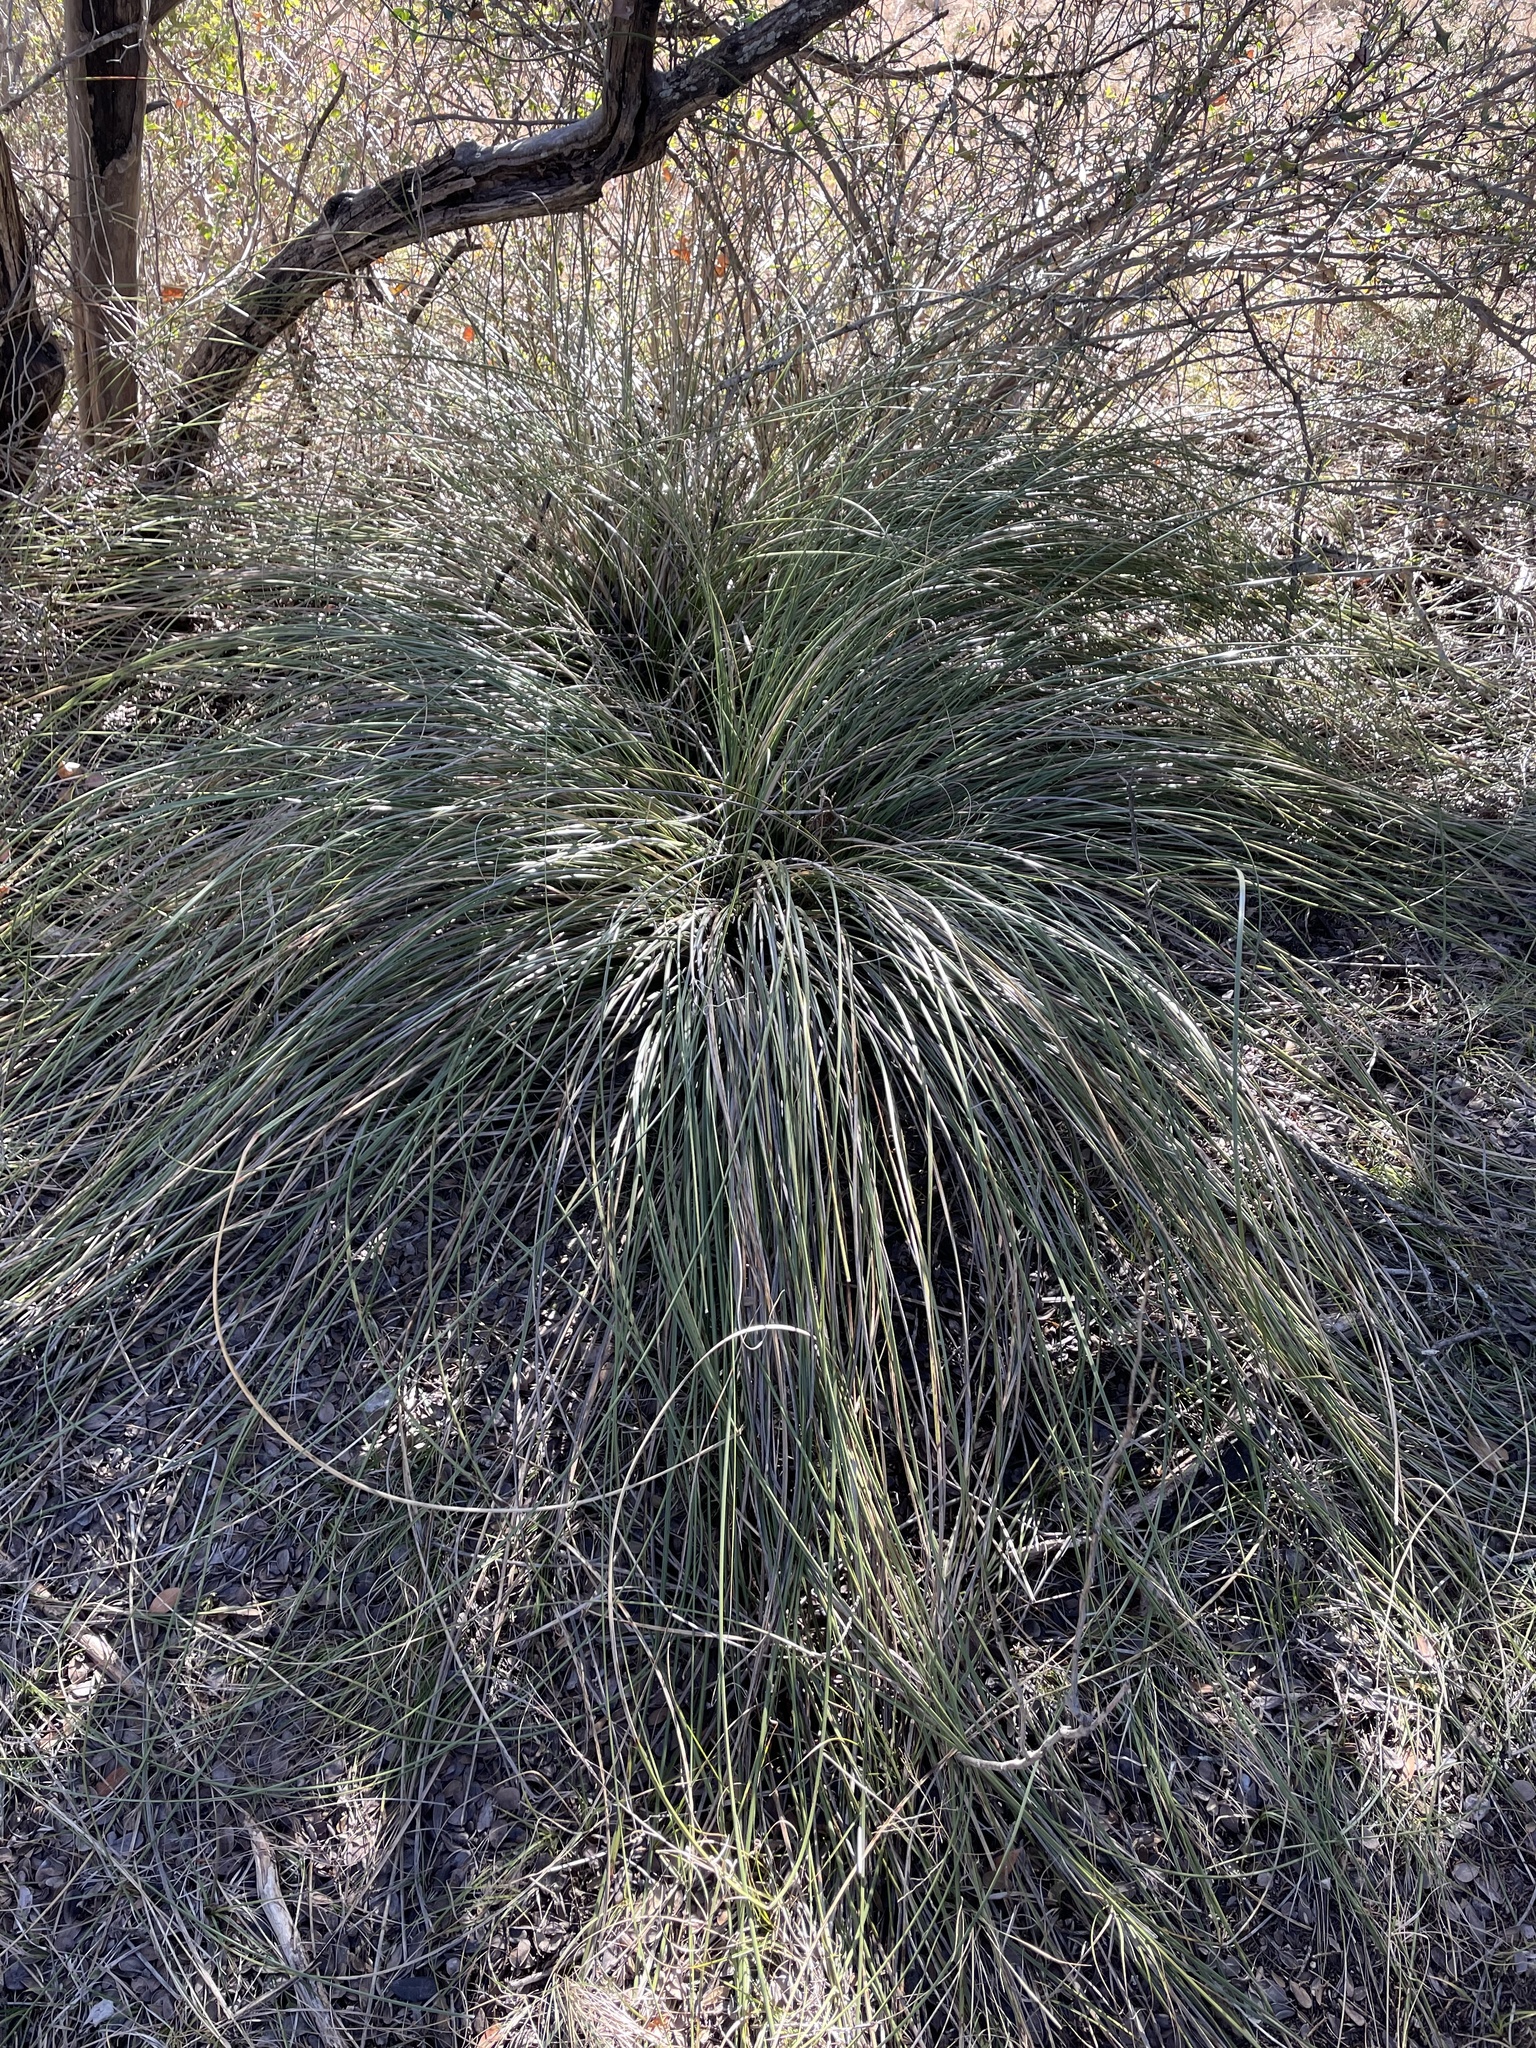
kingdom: Plantae
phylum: Tracheophyta
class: Liliopsida
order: Asparagales
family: Asparagaceae
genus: Nolina
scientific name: Nolina texana
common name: Texas sacahuiste
